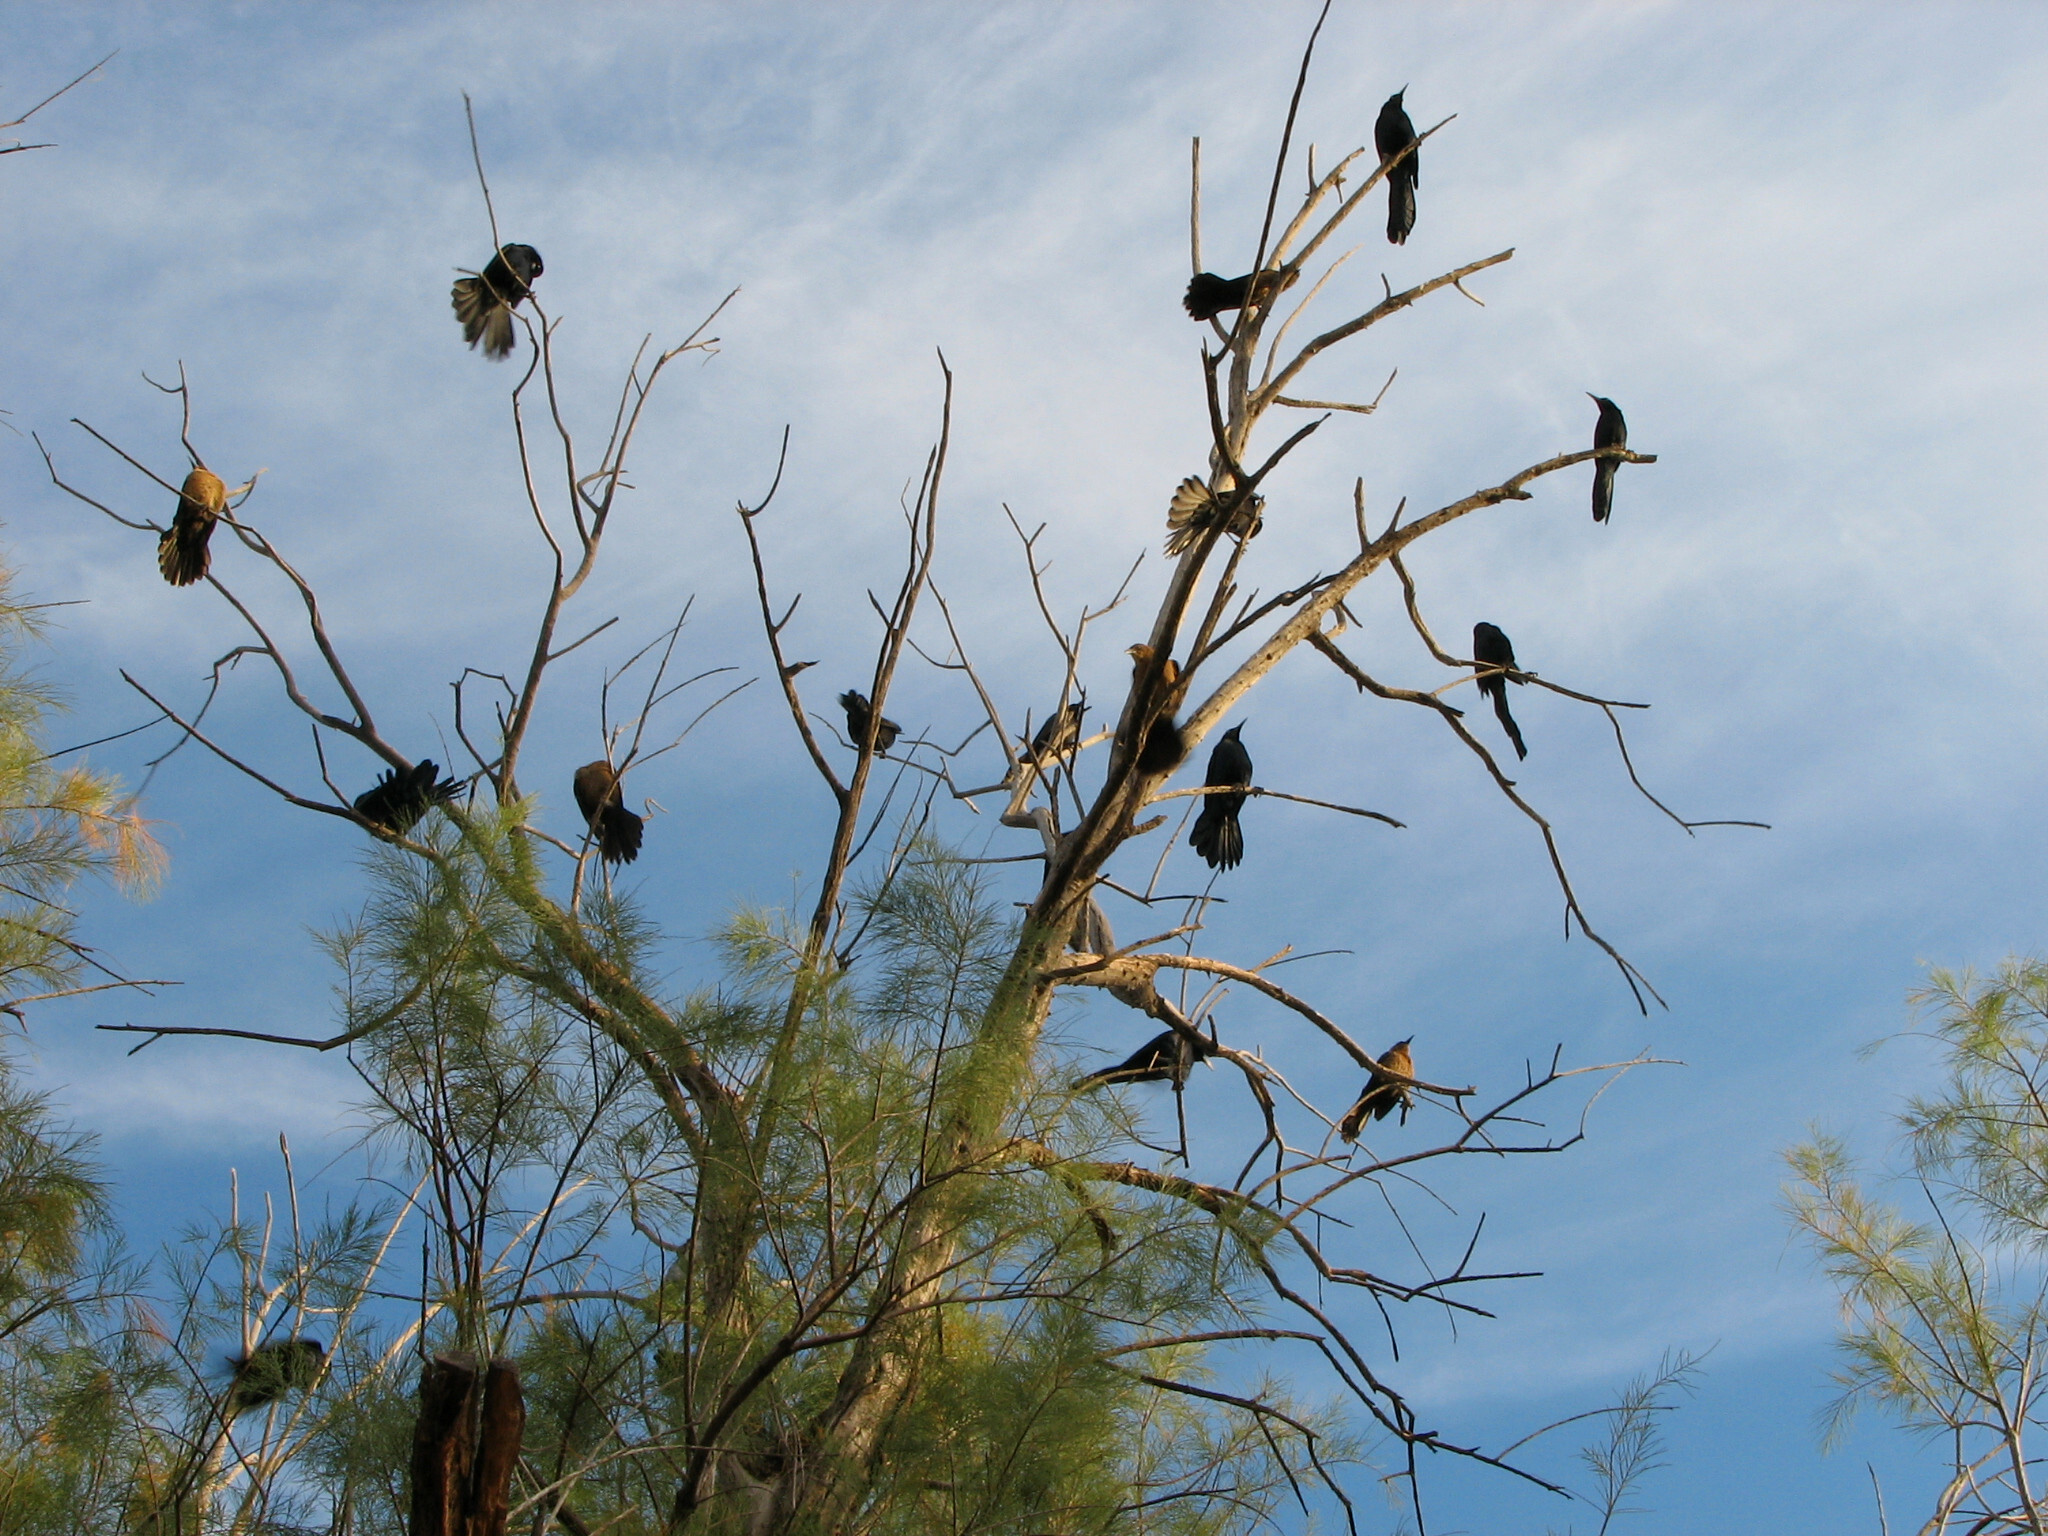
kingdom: Animalia
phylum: Chordata
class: Aves
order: Passeriformes
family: Icteridae
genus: Quiscalus
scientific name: Quiscalus mexicanus
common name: Great-tailed grackle
